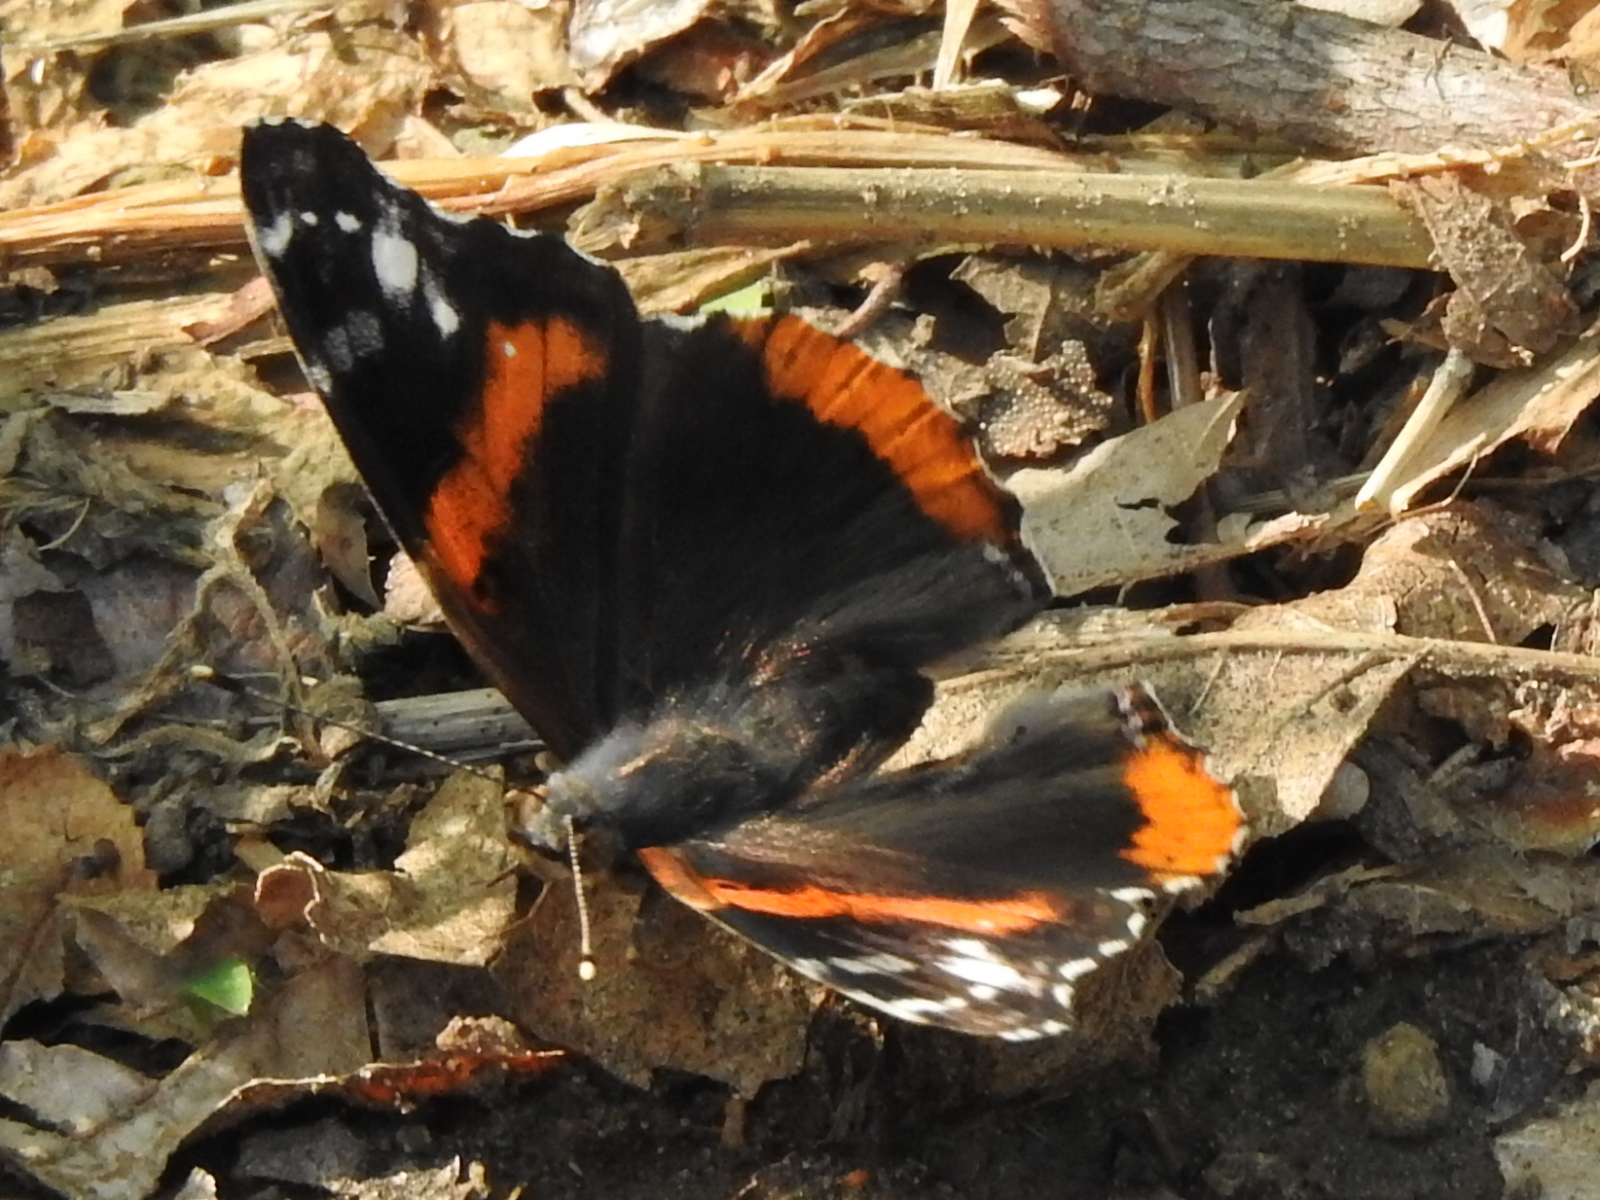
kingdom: Animalia
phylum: Arthropoda
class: Insecta
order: Lepidoptera
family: Nymphalidae
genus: Vanessa
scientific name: Vanessa atalanta
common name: Red admiral
